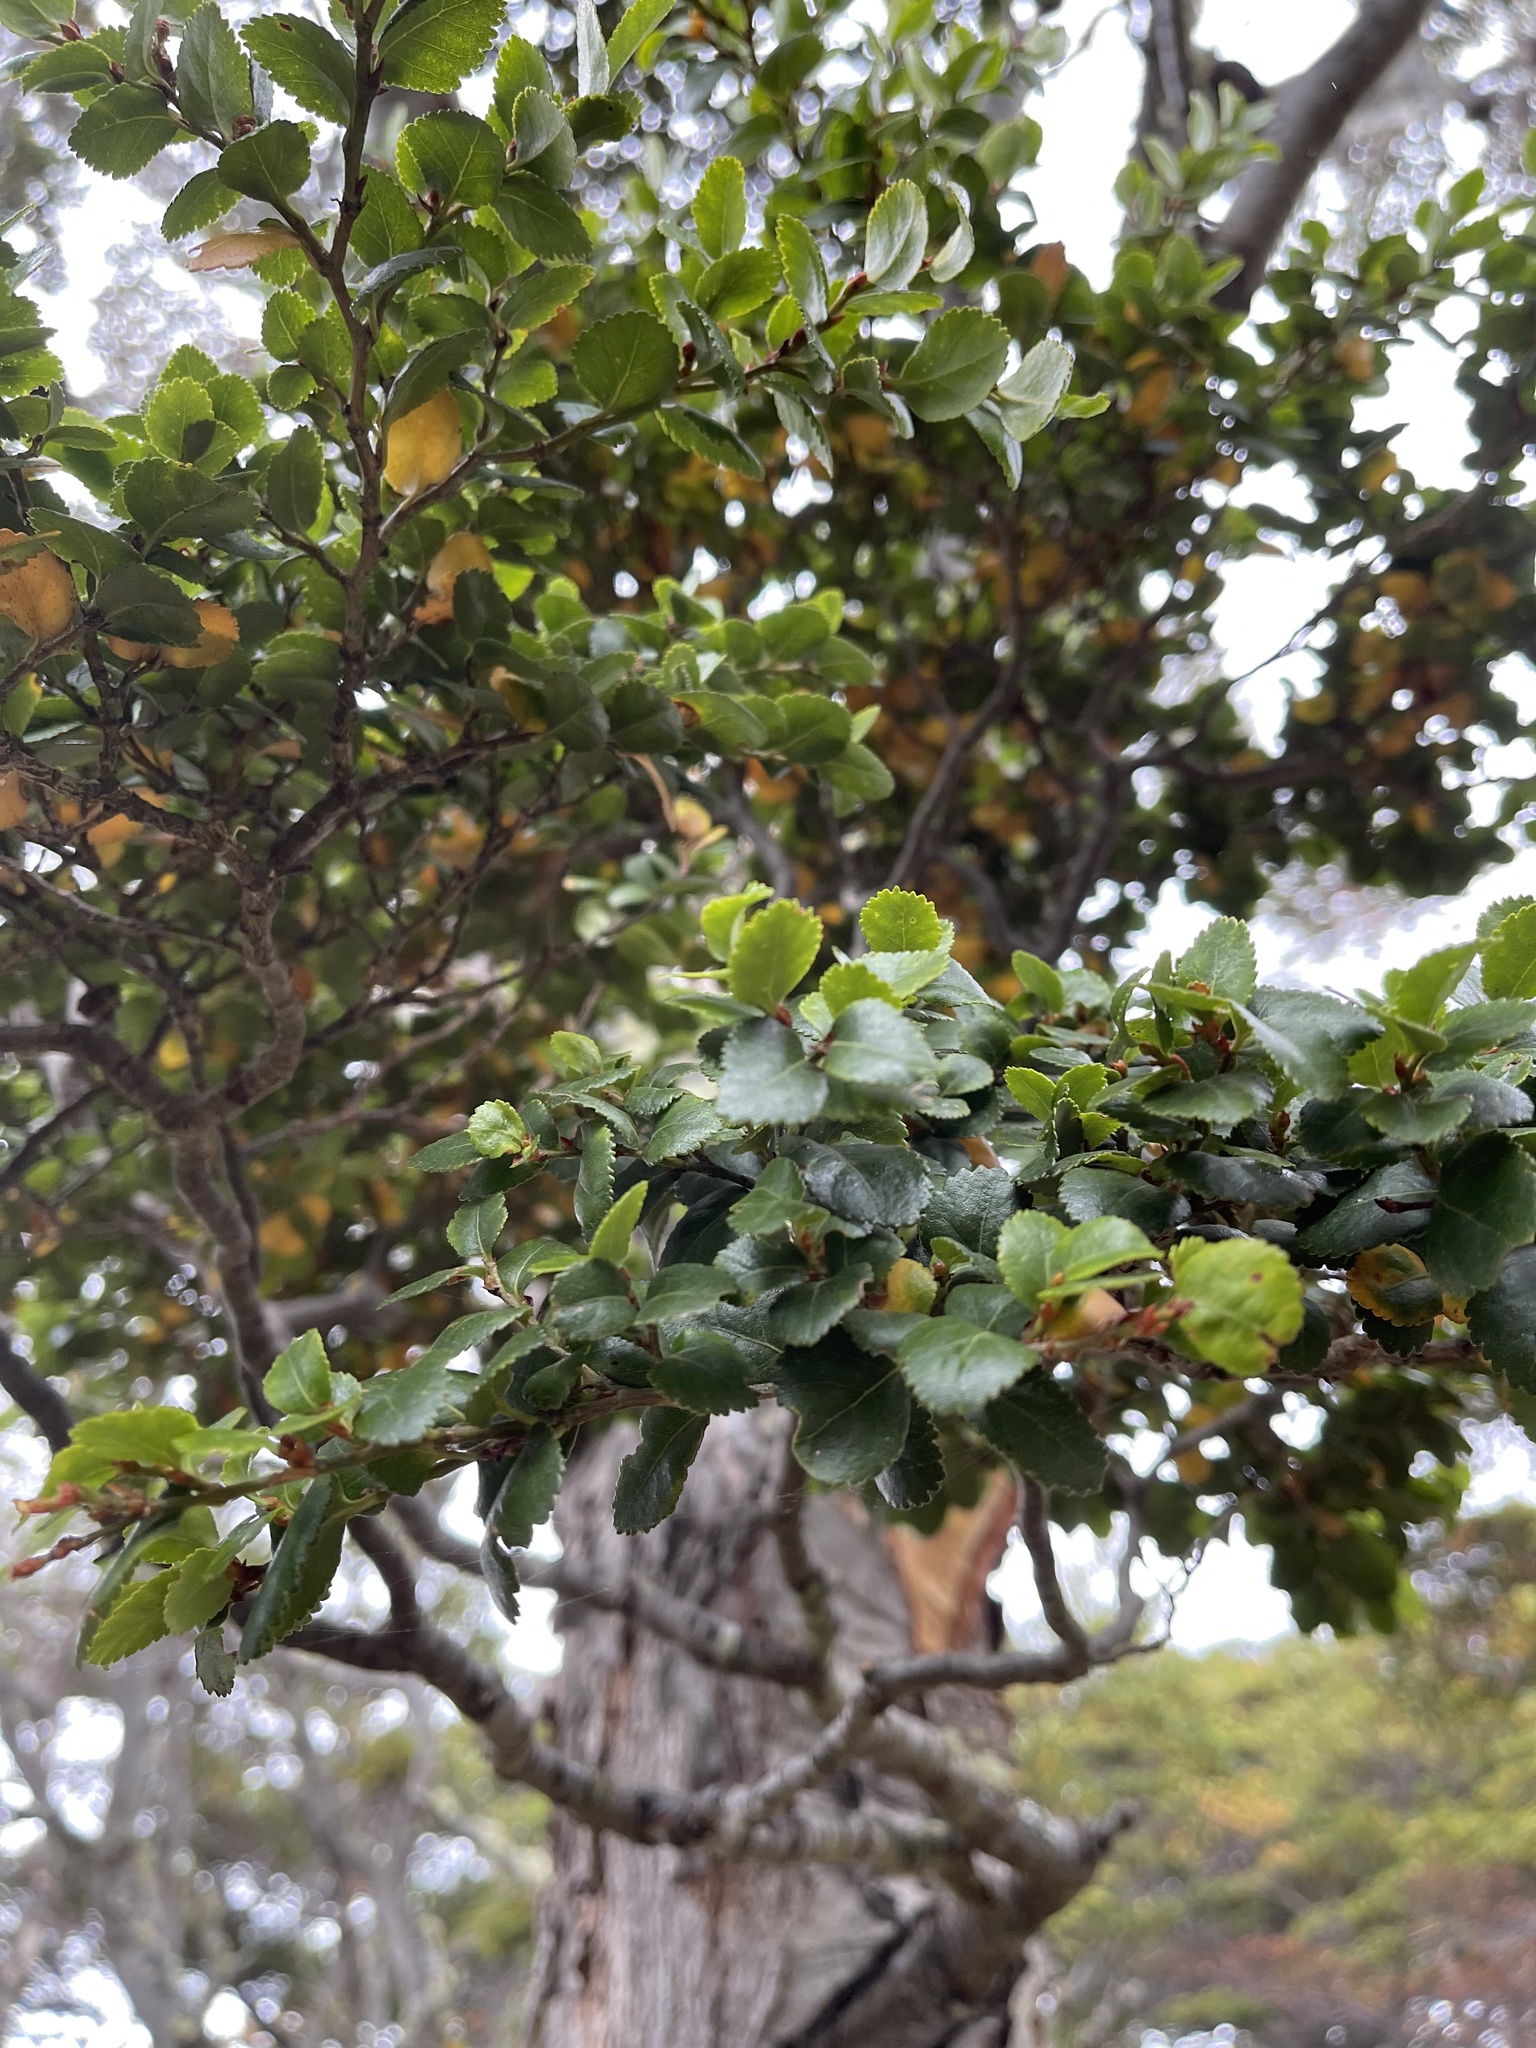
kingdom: Plantae
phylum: Tracheophyta
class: Magnoliopsida
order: Fagales
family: Nothofagaceae
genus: Nothofagus
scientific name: Nothofagus betuloides
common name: Magellan's beech
